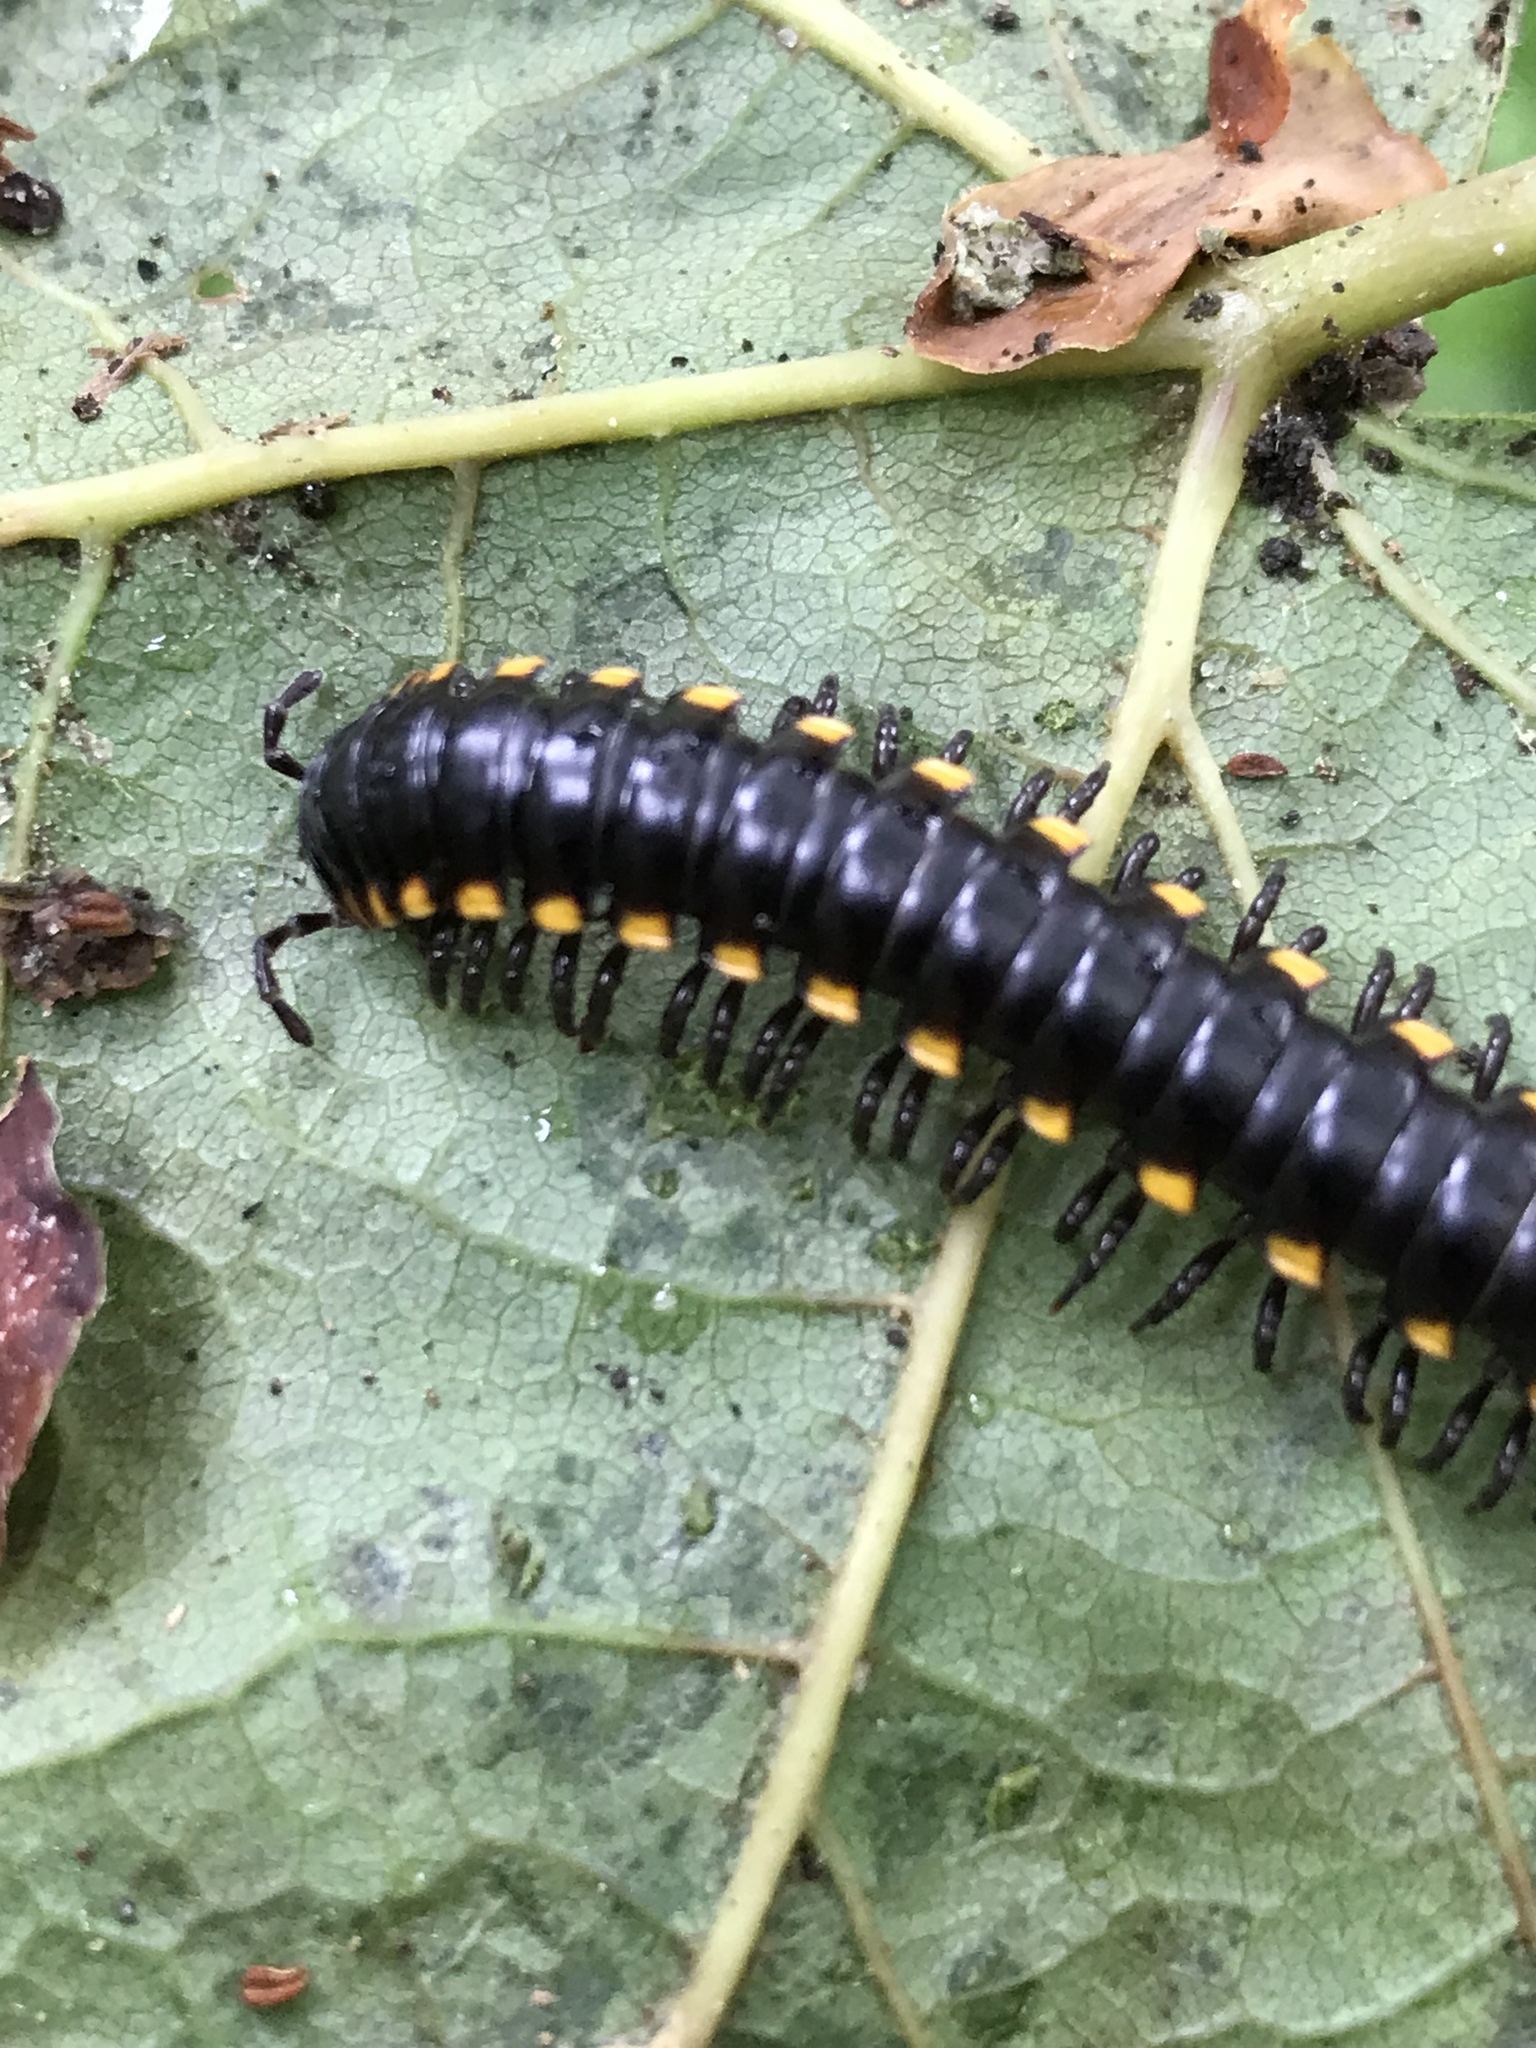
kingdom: Animalia
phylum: Arthropoda
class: Diplopoda
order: Polydesmida
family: Xystodesmidae
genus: Harpaphe
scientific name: Harpaphe haydeniana
